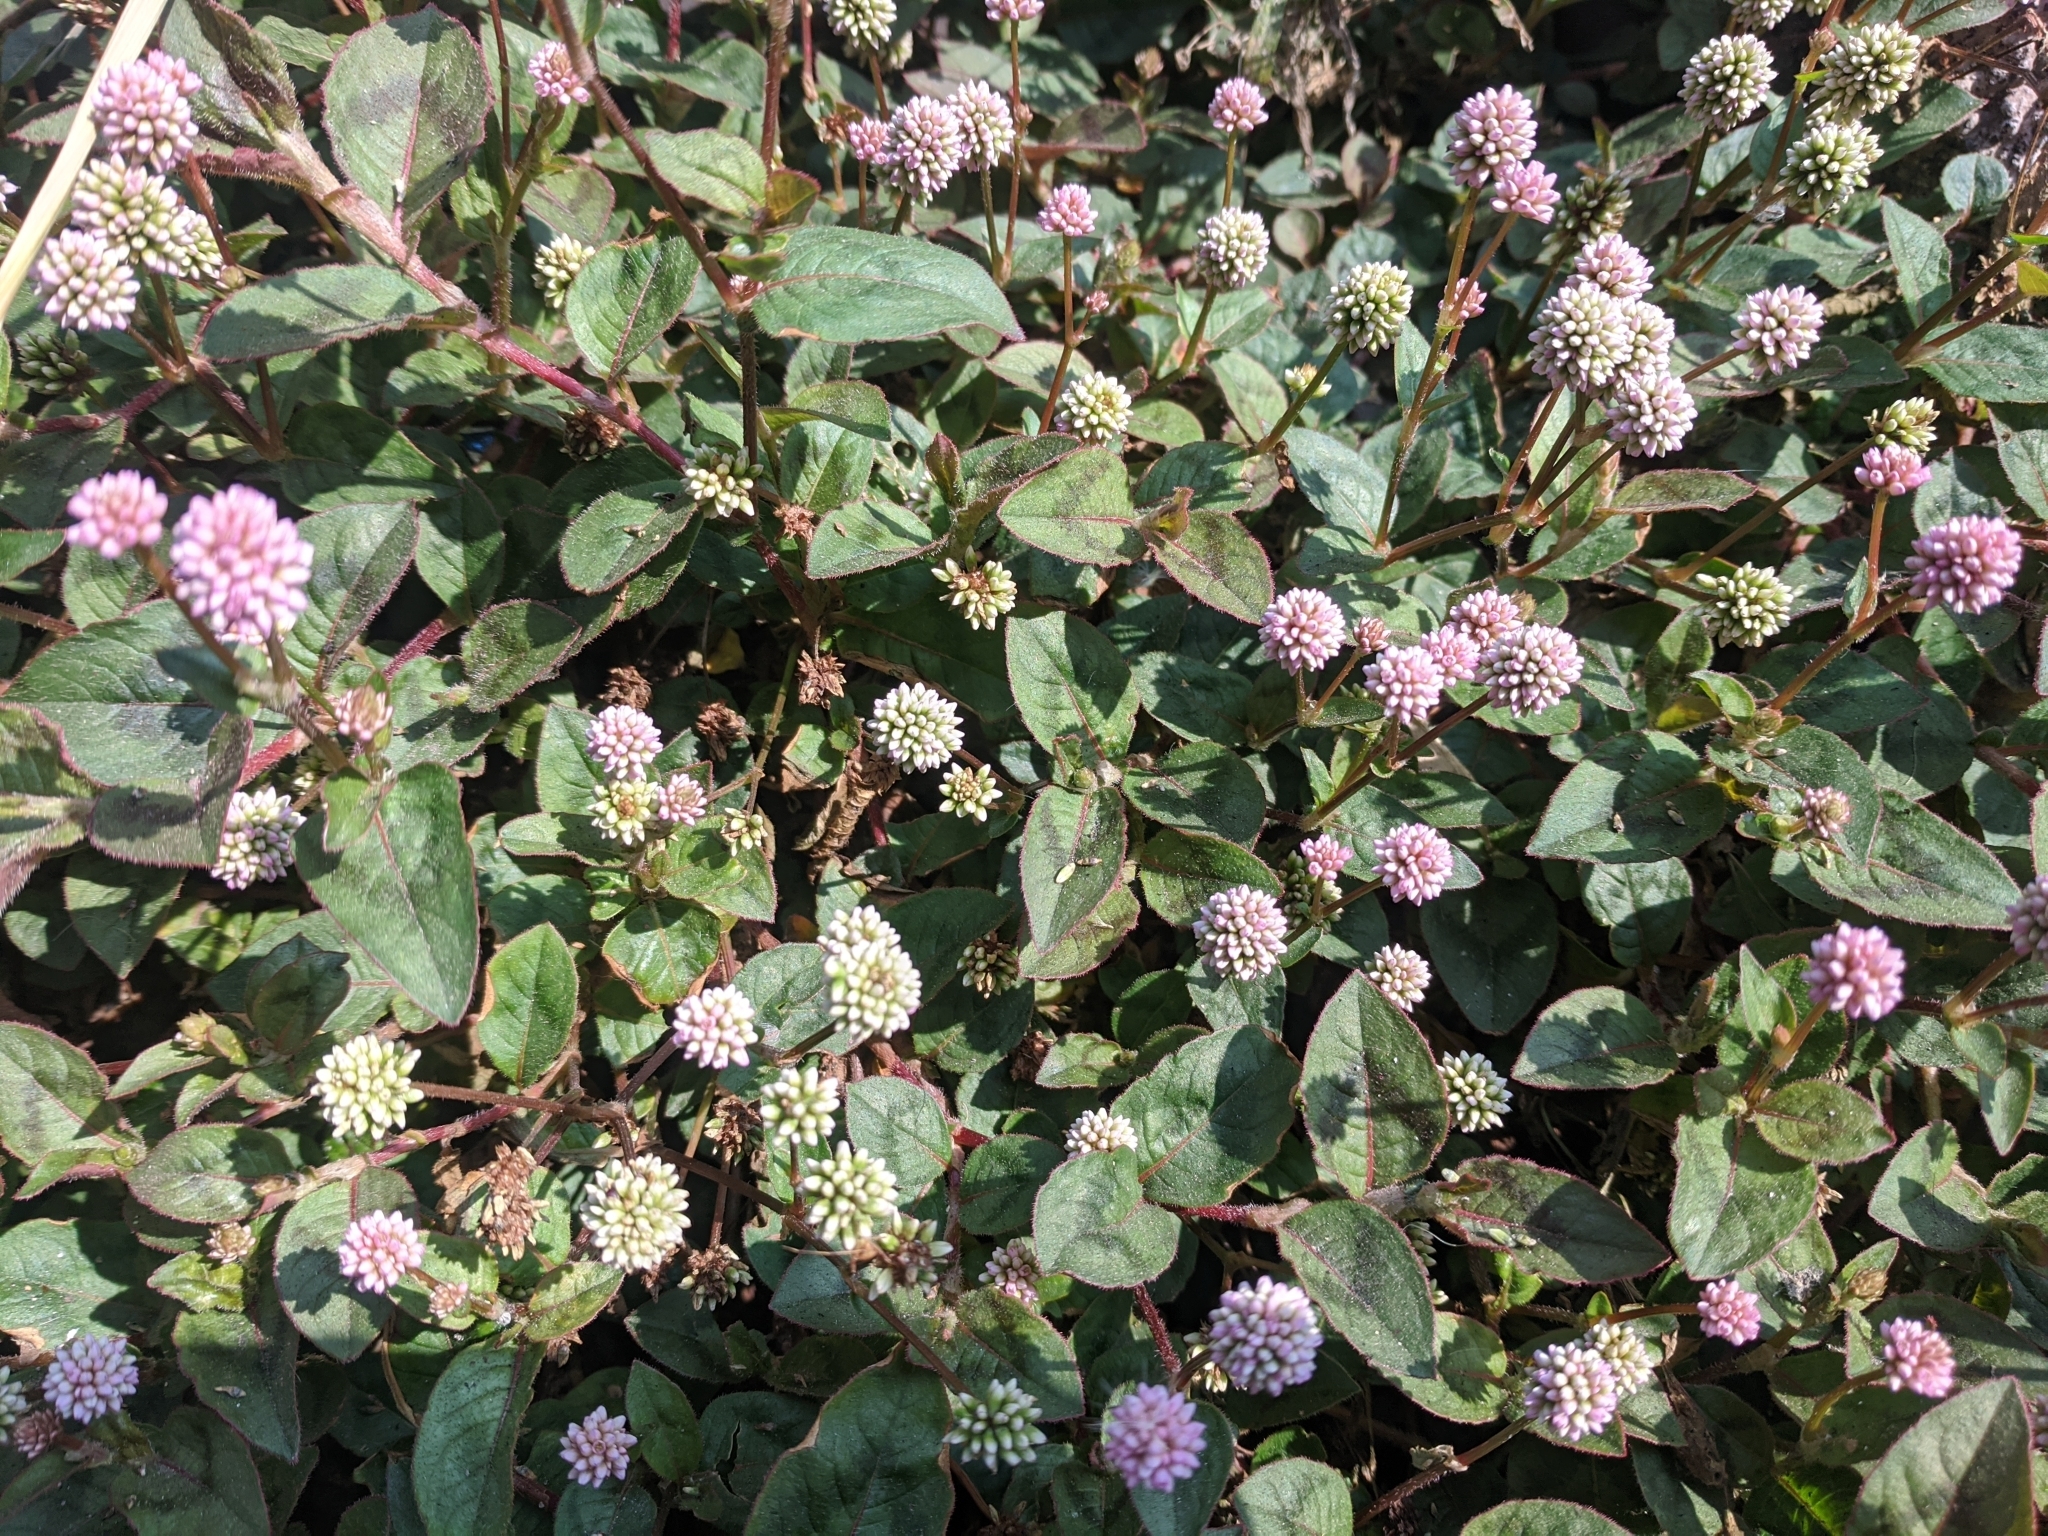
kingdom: Plantae
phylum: Tracheophyta
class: Magnoliopsida
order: Caryophyllales
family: Polygonaceae
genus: Persicaria
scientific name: Persicaria capitata
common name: Pinkhead smartweed
